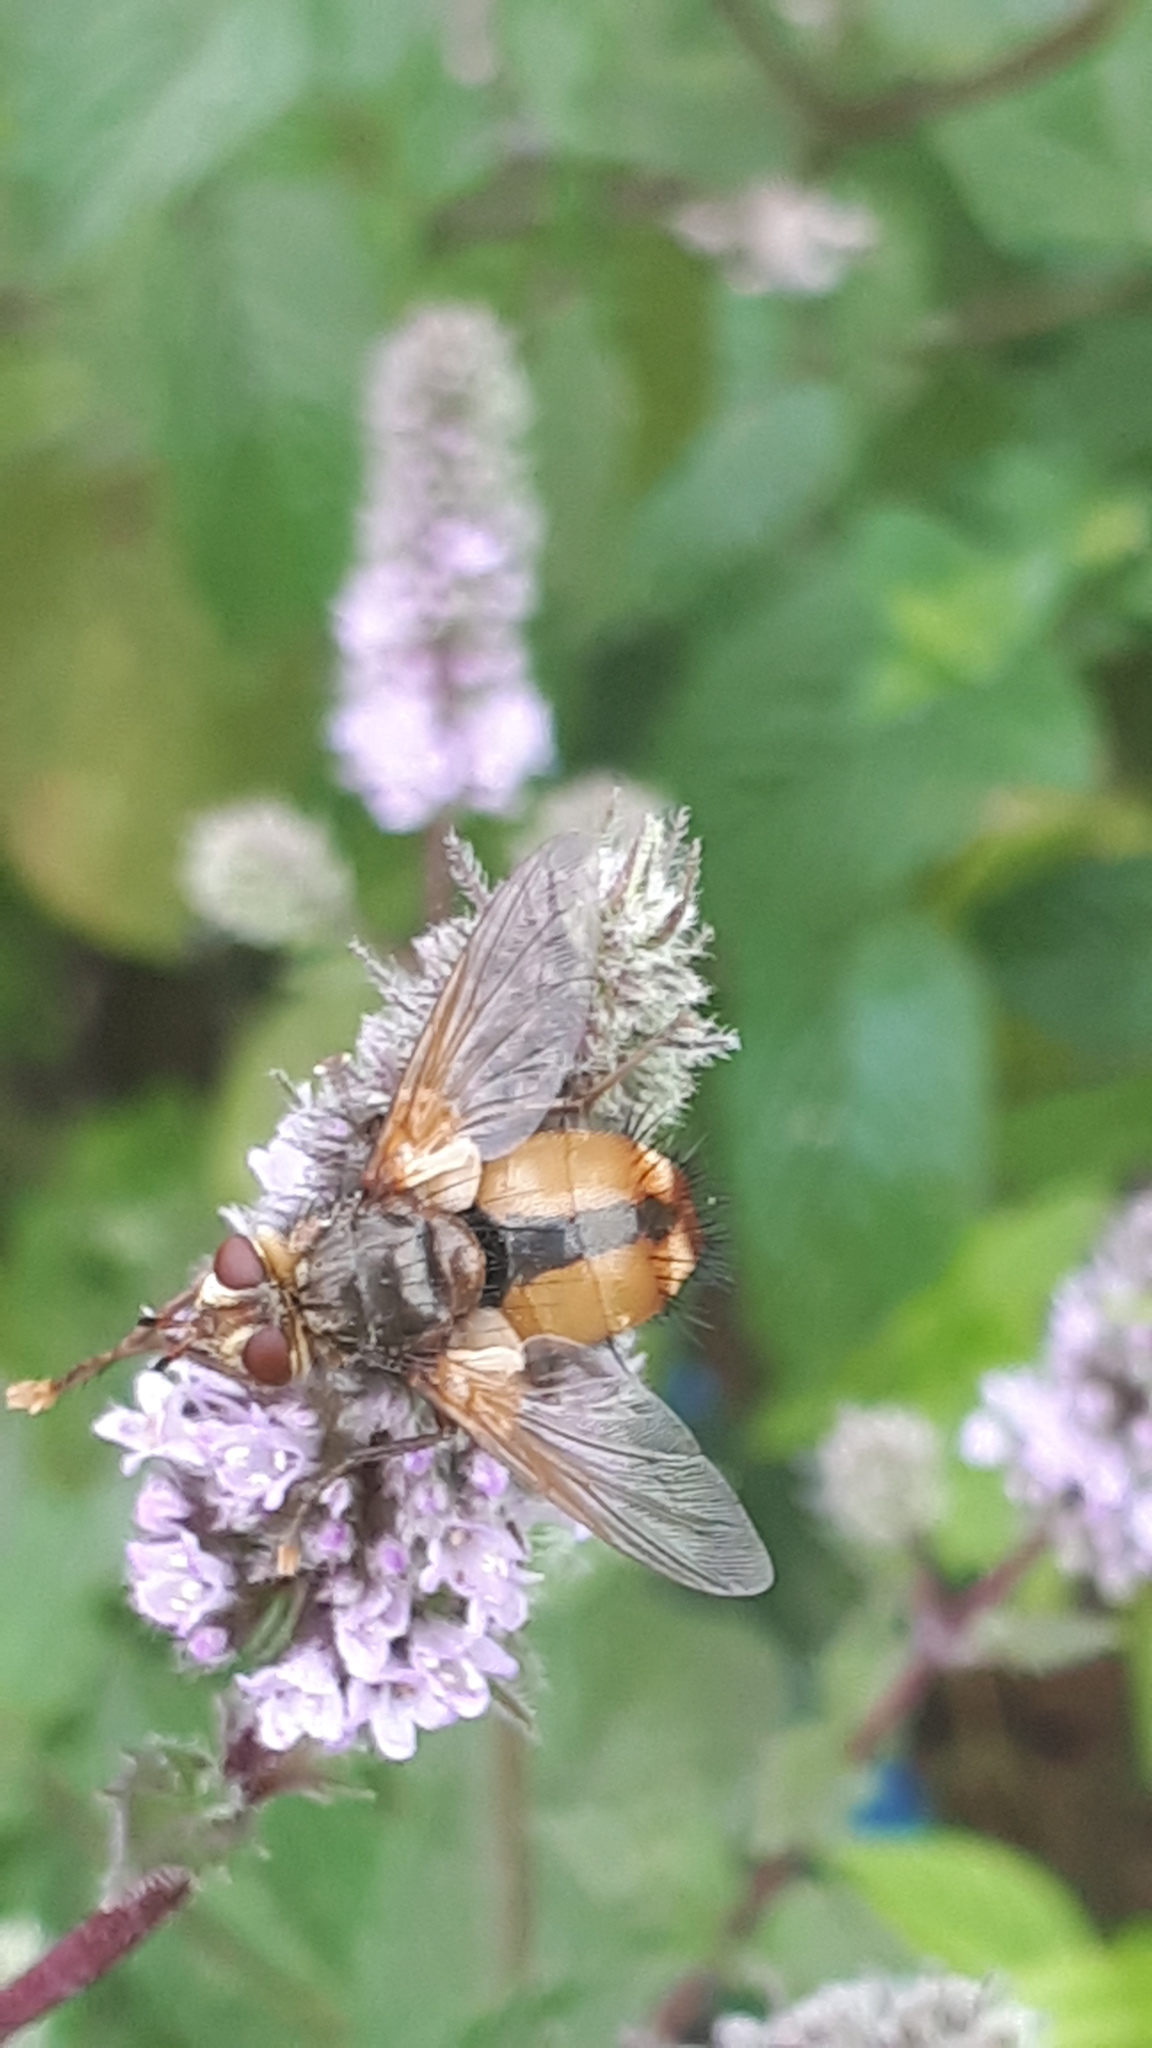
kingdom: Animalia
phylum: Arthropoda
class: Insecta
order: Diptera
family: Tachinidae
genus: Tachina
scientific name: Tachina fera
